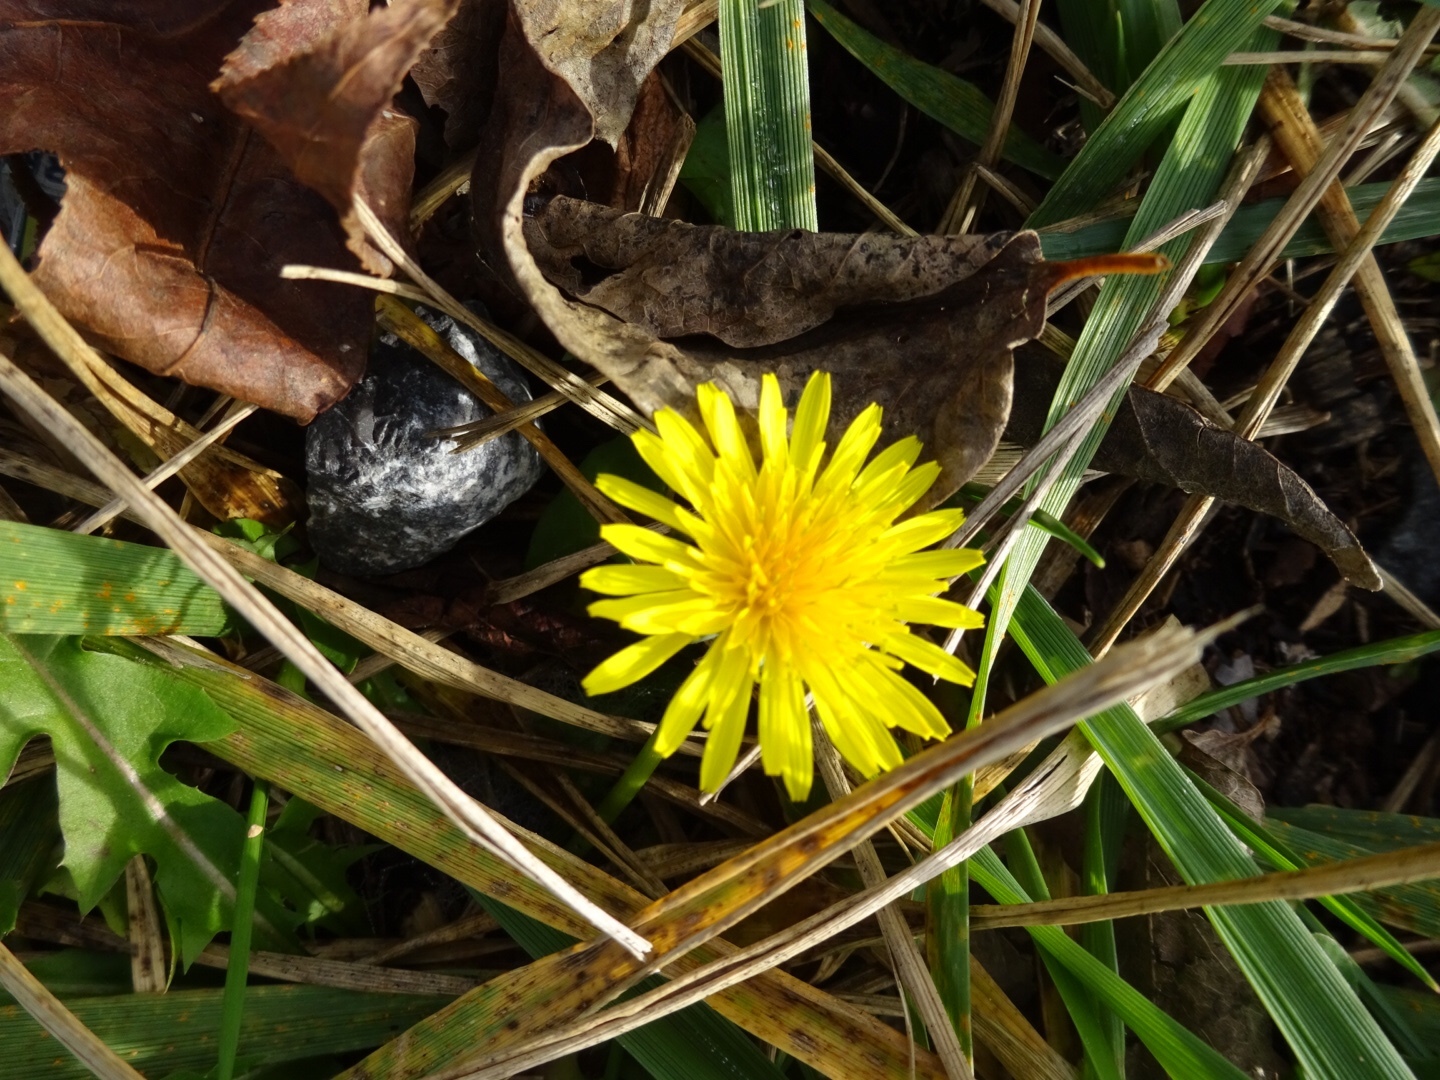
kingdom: Plantae
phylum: Tracheophyta
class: Magnoliopsida
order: Asterales
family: Asteraceae
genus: Taraxacum
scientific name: Taraxacum
